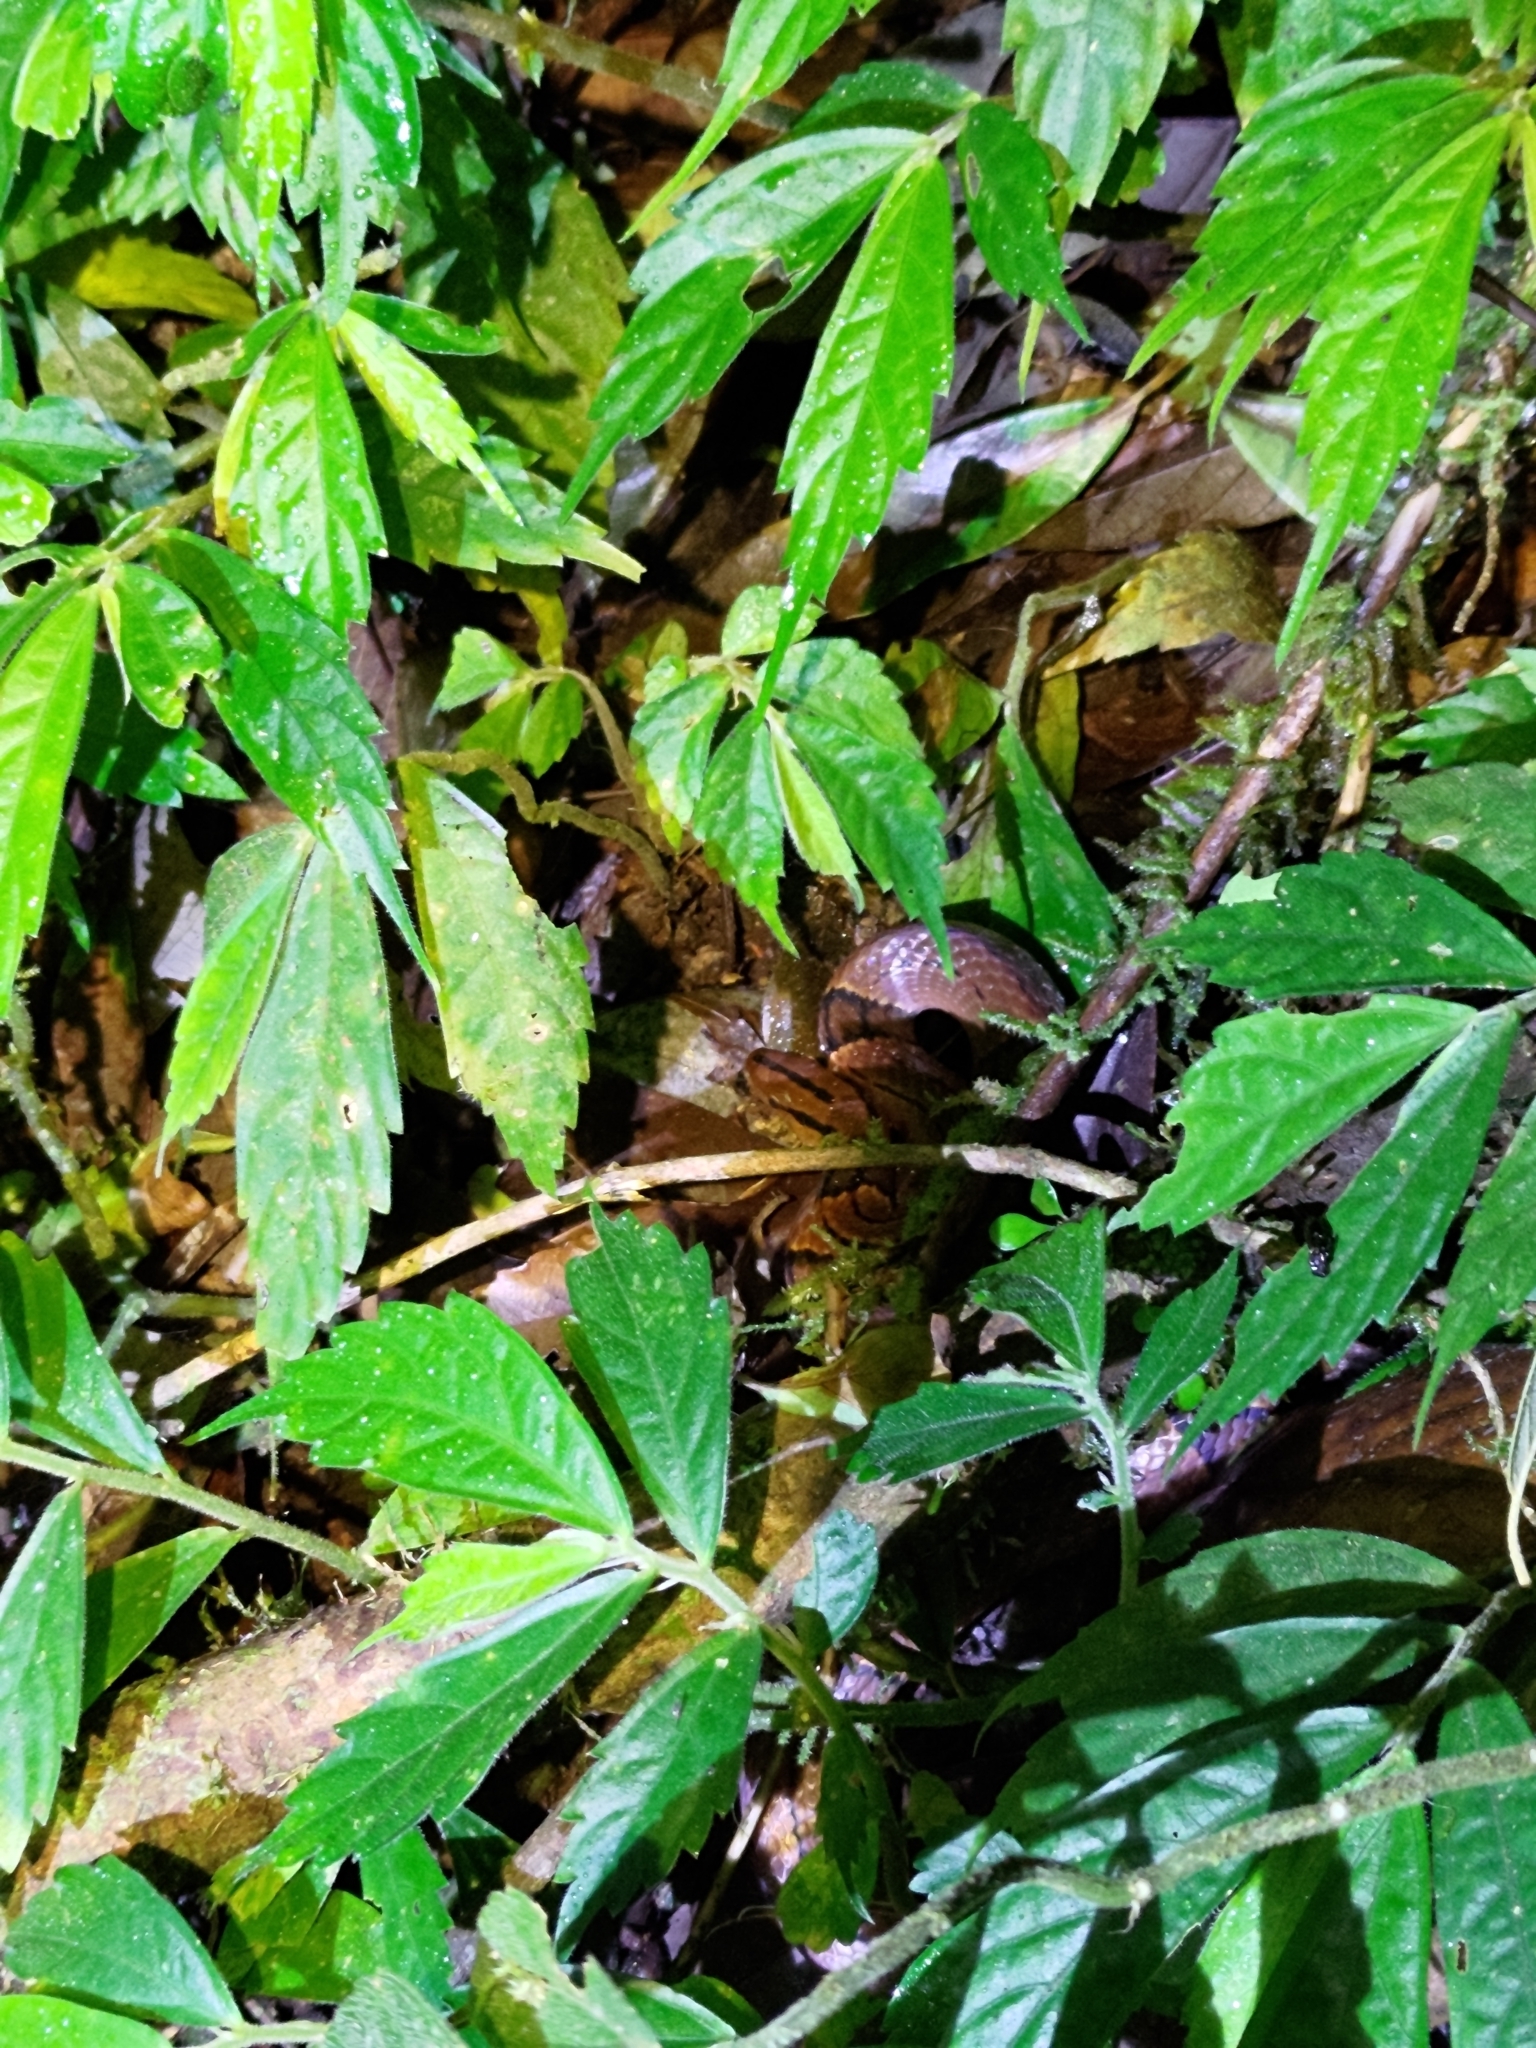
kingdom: Animalia
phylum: Chordata
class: Squamata
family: Colubridae
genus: Oreocryptophis
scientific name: Oreocryptophis porphyraceus
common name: Black-banded trinket snake
